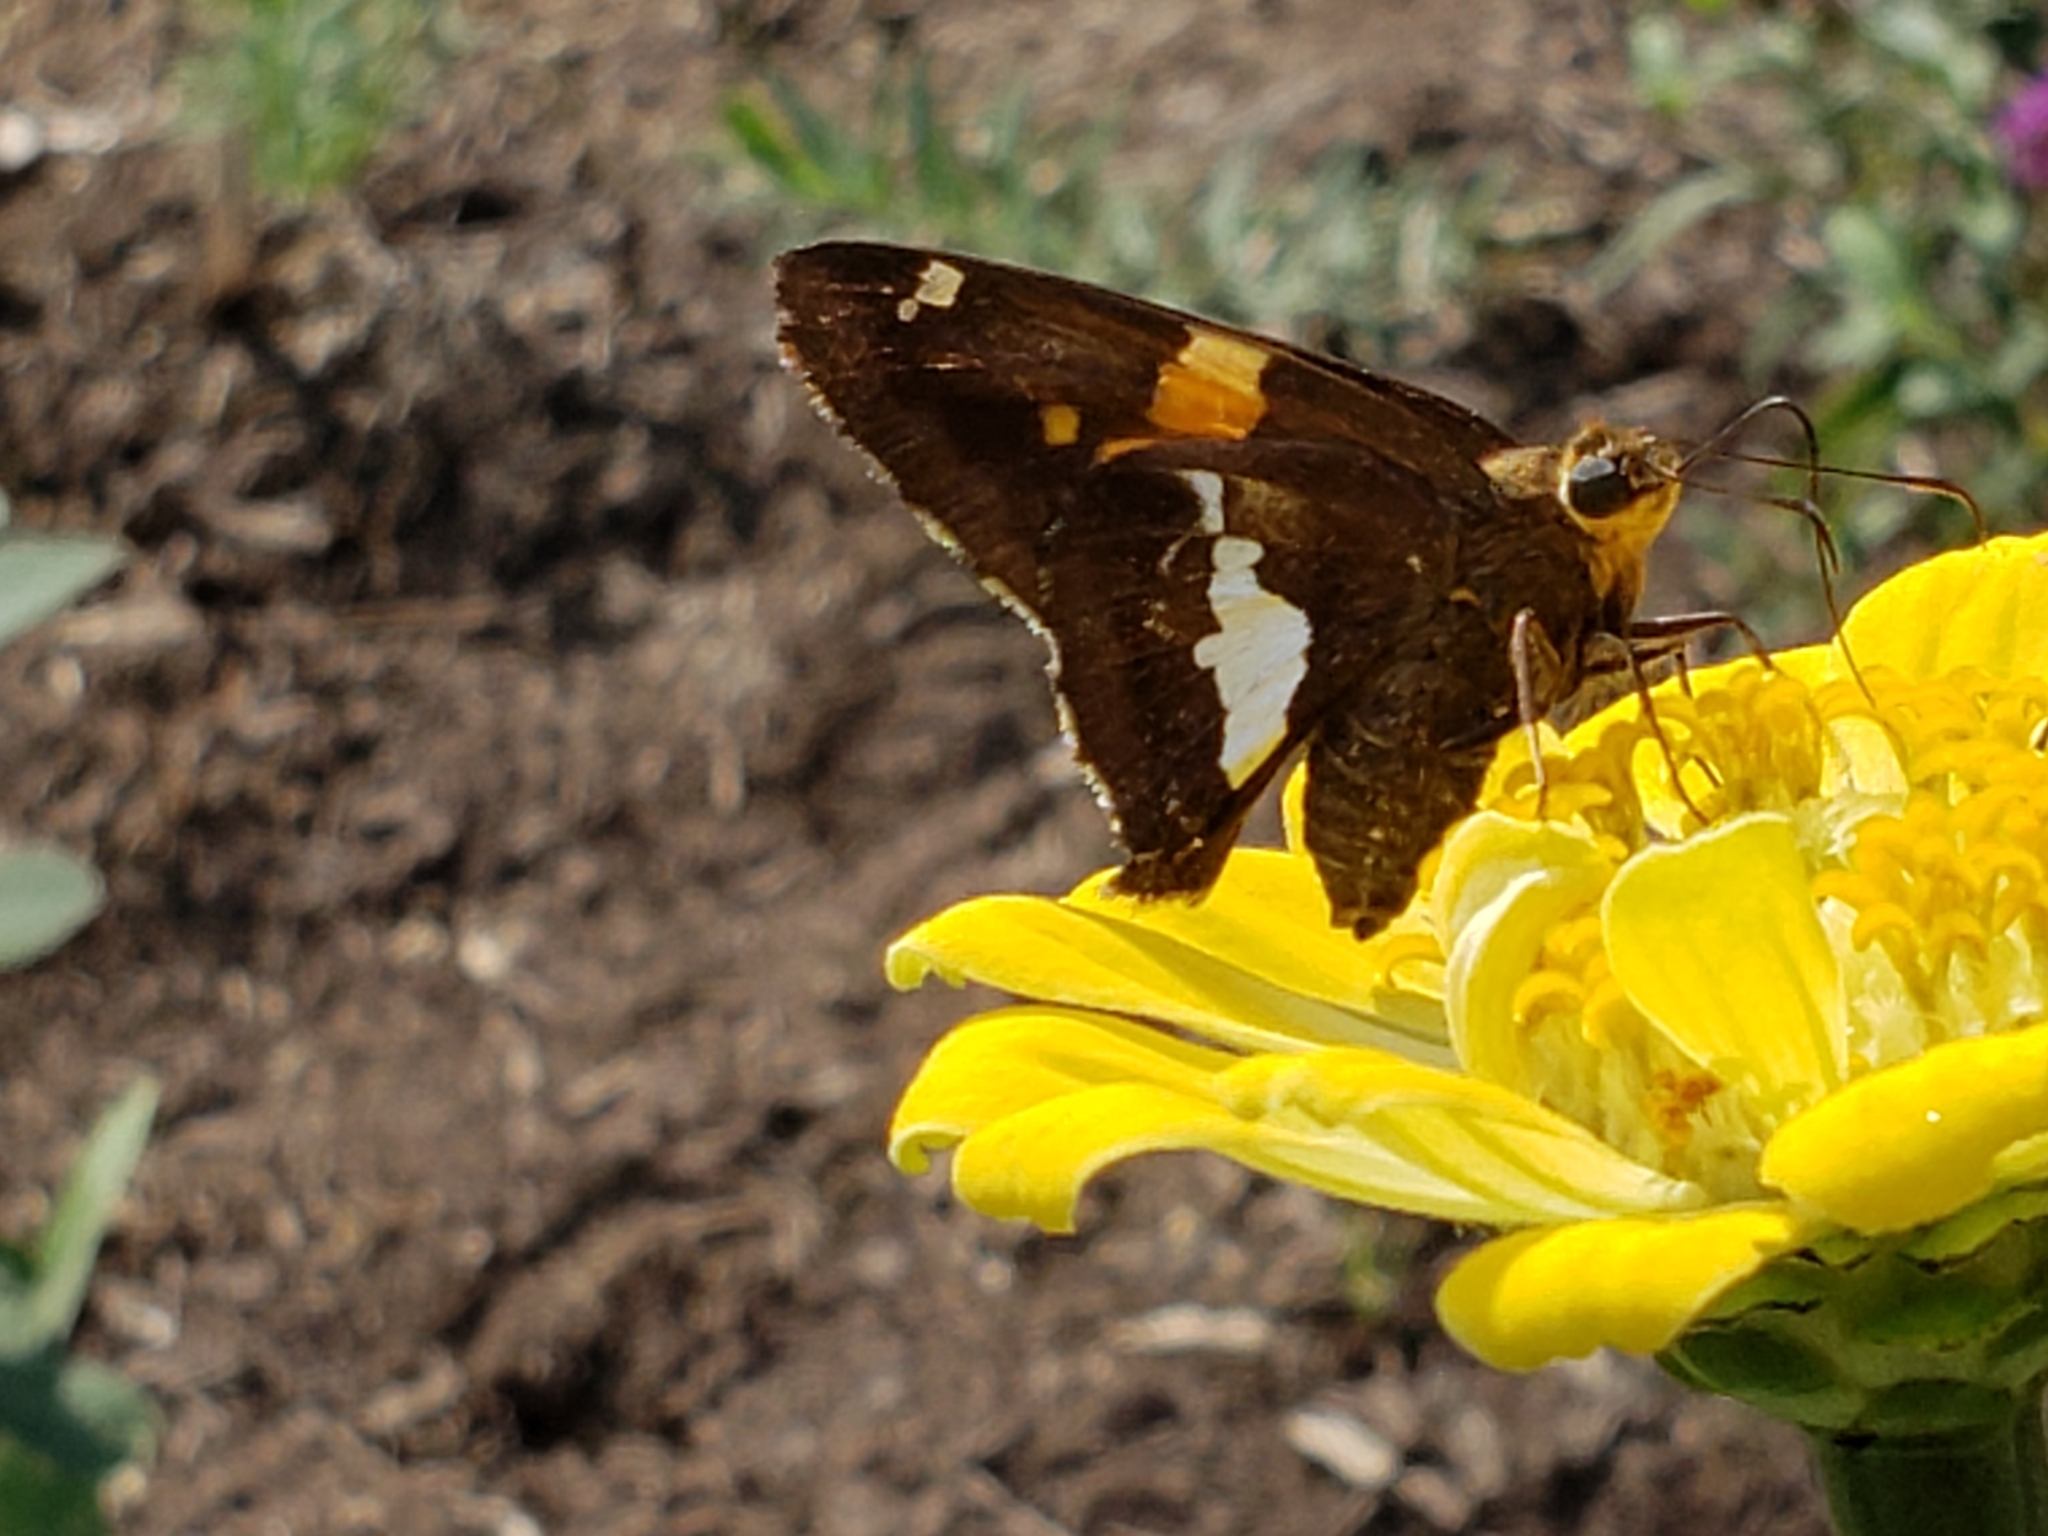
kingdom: Animalia
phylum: Arthropoda
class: Insecta
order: Lepidoptera
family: Hesperiidae
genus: Epargyreus
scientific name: Epargyreus clarus
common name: Silver-spotted skipper
